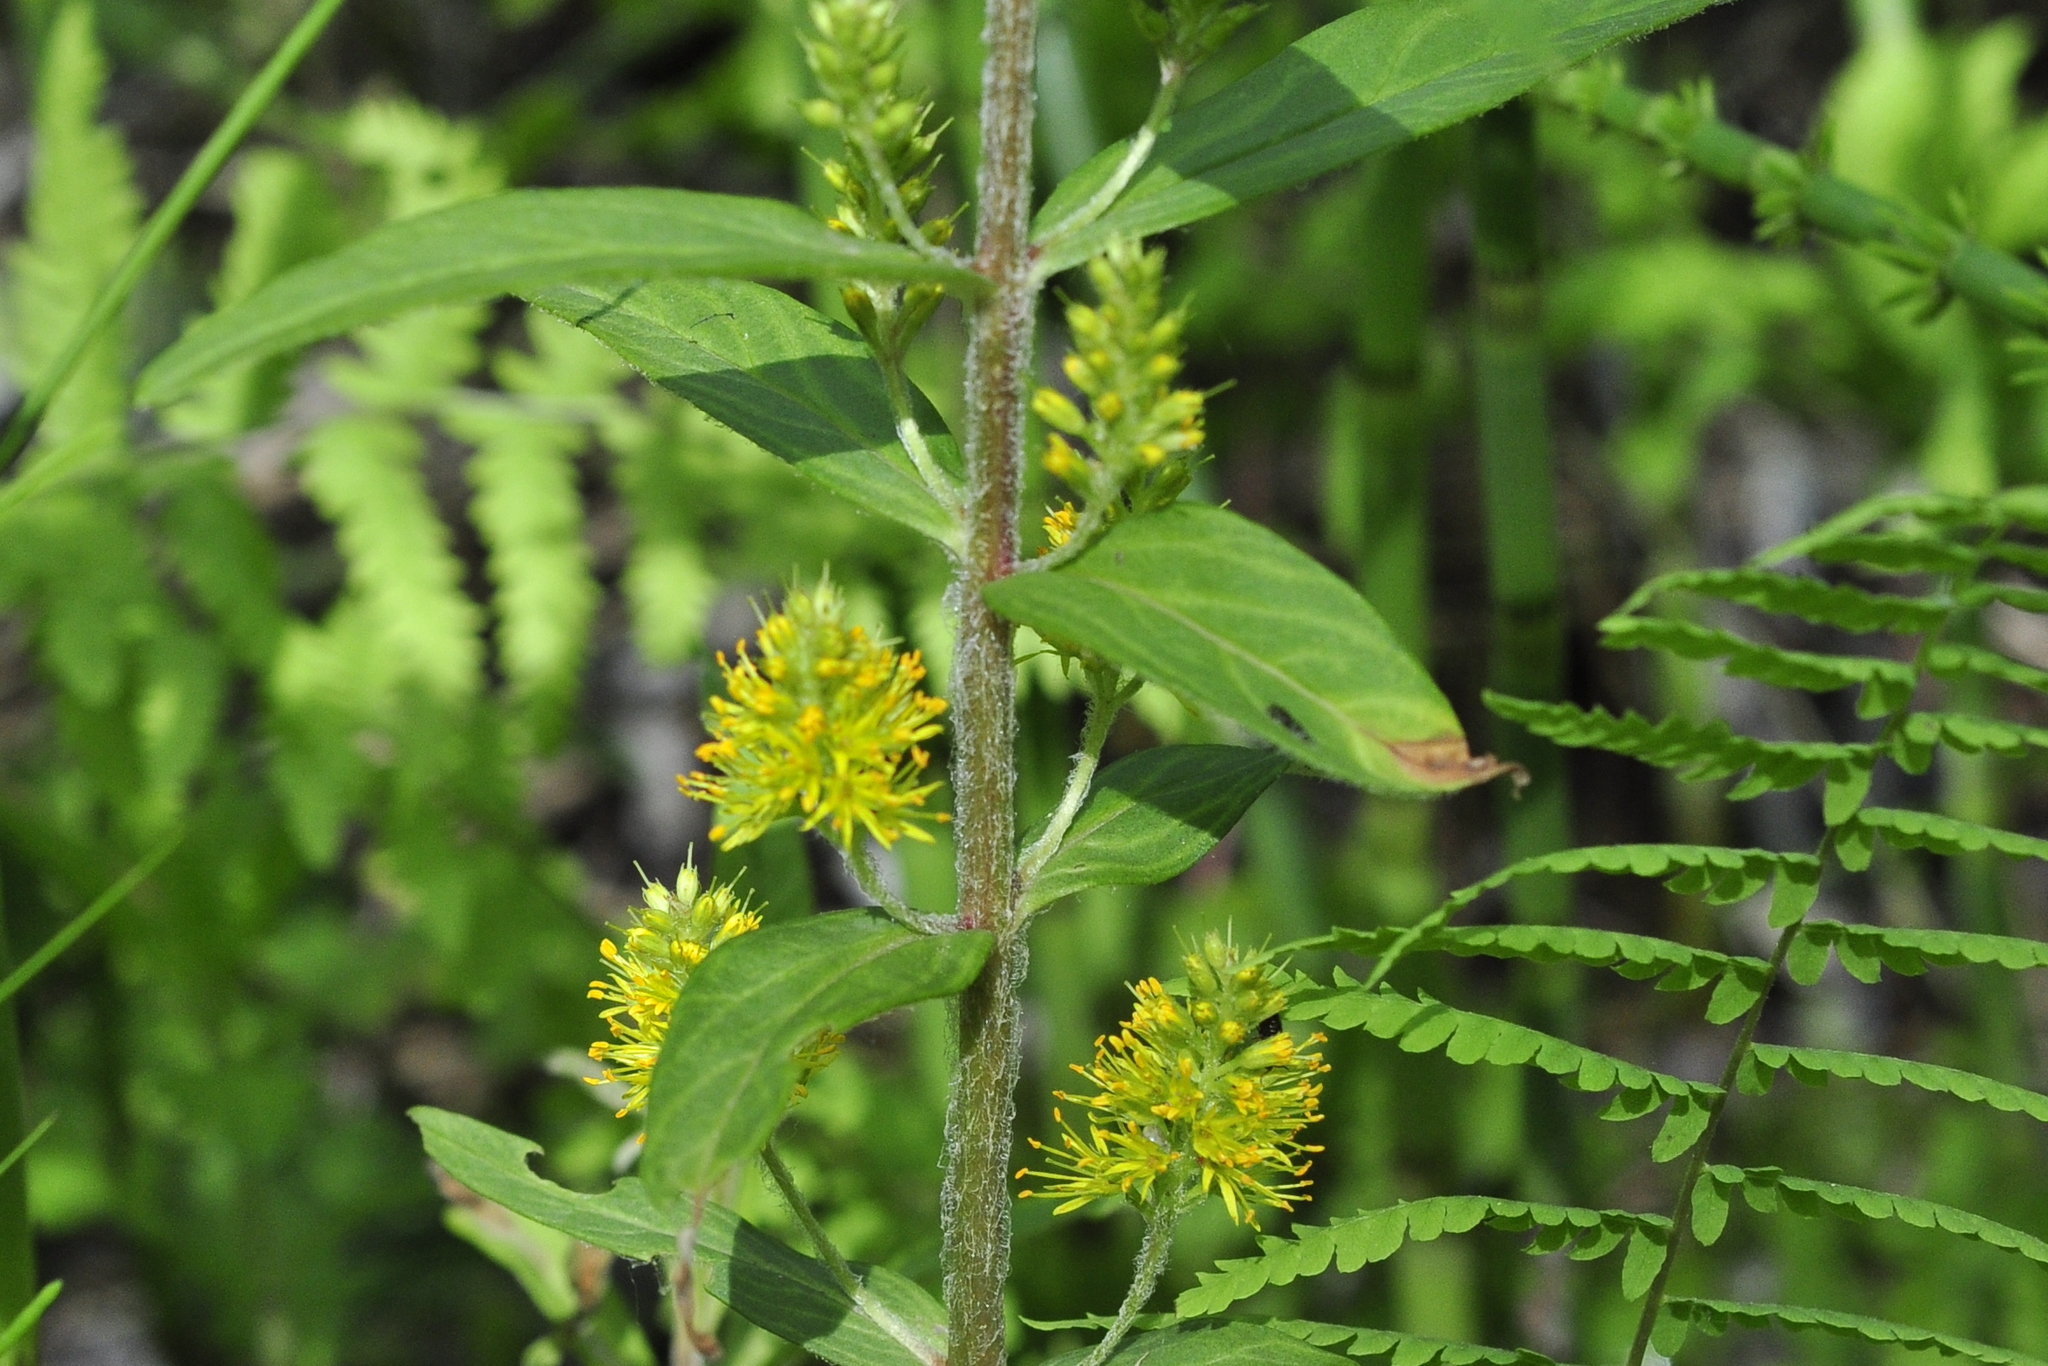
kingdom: Plantae
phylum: Tracheophyta
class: Magnoliopsida
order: Ericales
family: Primulaceae
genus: Lysimachia
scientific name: Lysimachia thyrsiflora
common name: Tufted loosestrife
